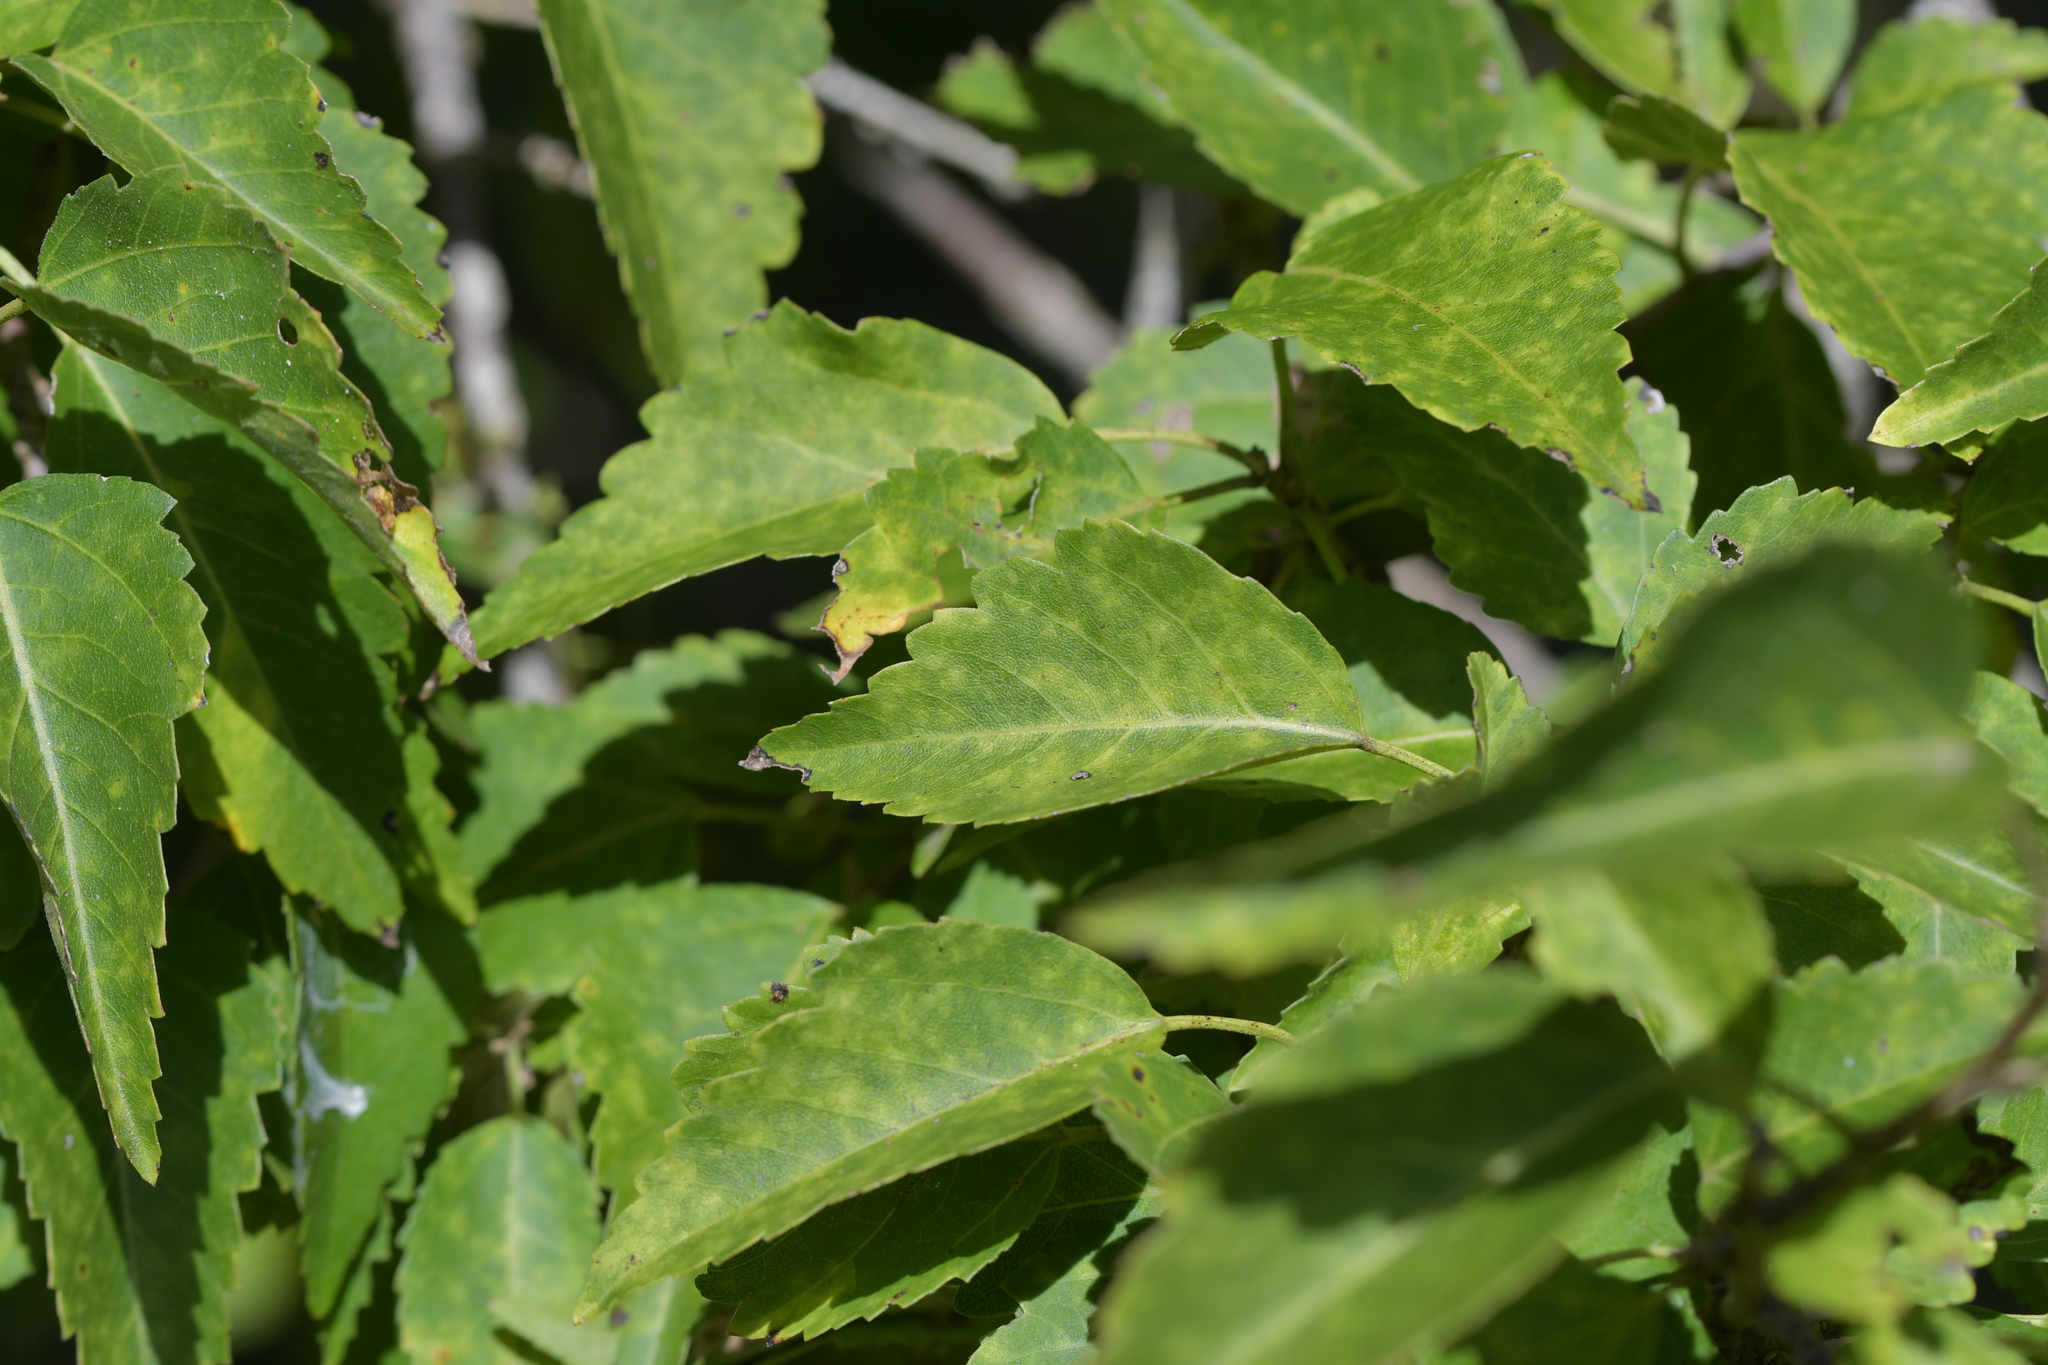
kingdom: Plantae
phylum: Tracheophyta
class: Magnoliopsida
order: Malvales
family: Malvaceae
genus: Plagianthus
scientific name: Plagianthus regius
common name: Manatu
